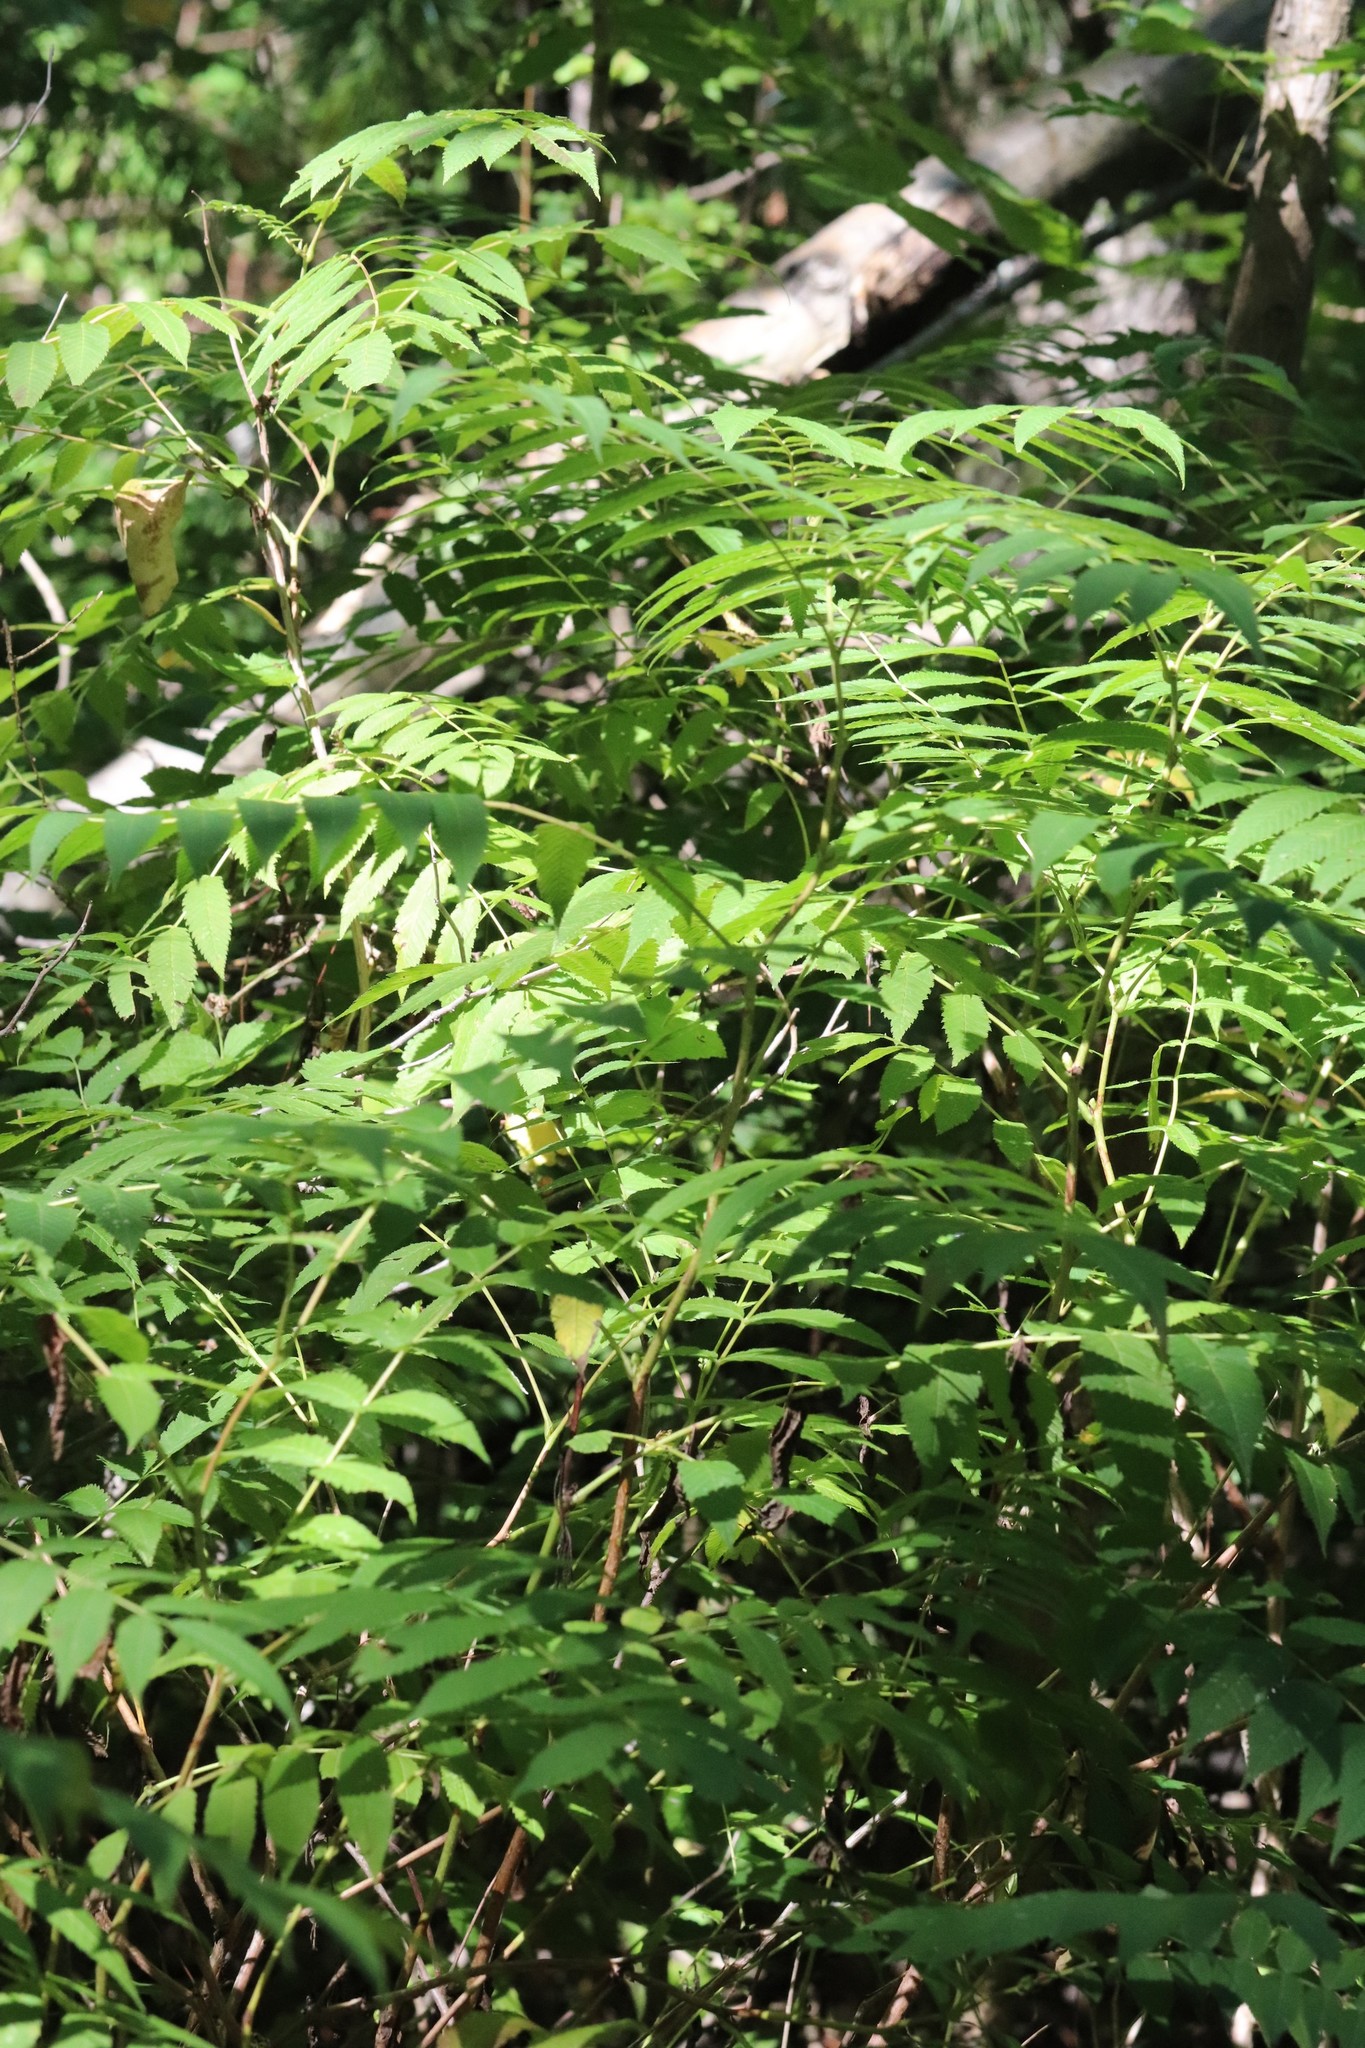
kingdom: Plantae
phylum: Tracheophyta
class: Magnoliopsida
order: Rosales
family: Rosaceae
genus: Sorbaria
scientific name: Sorbaria sorbifolia
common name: False spiraea
